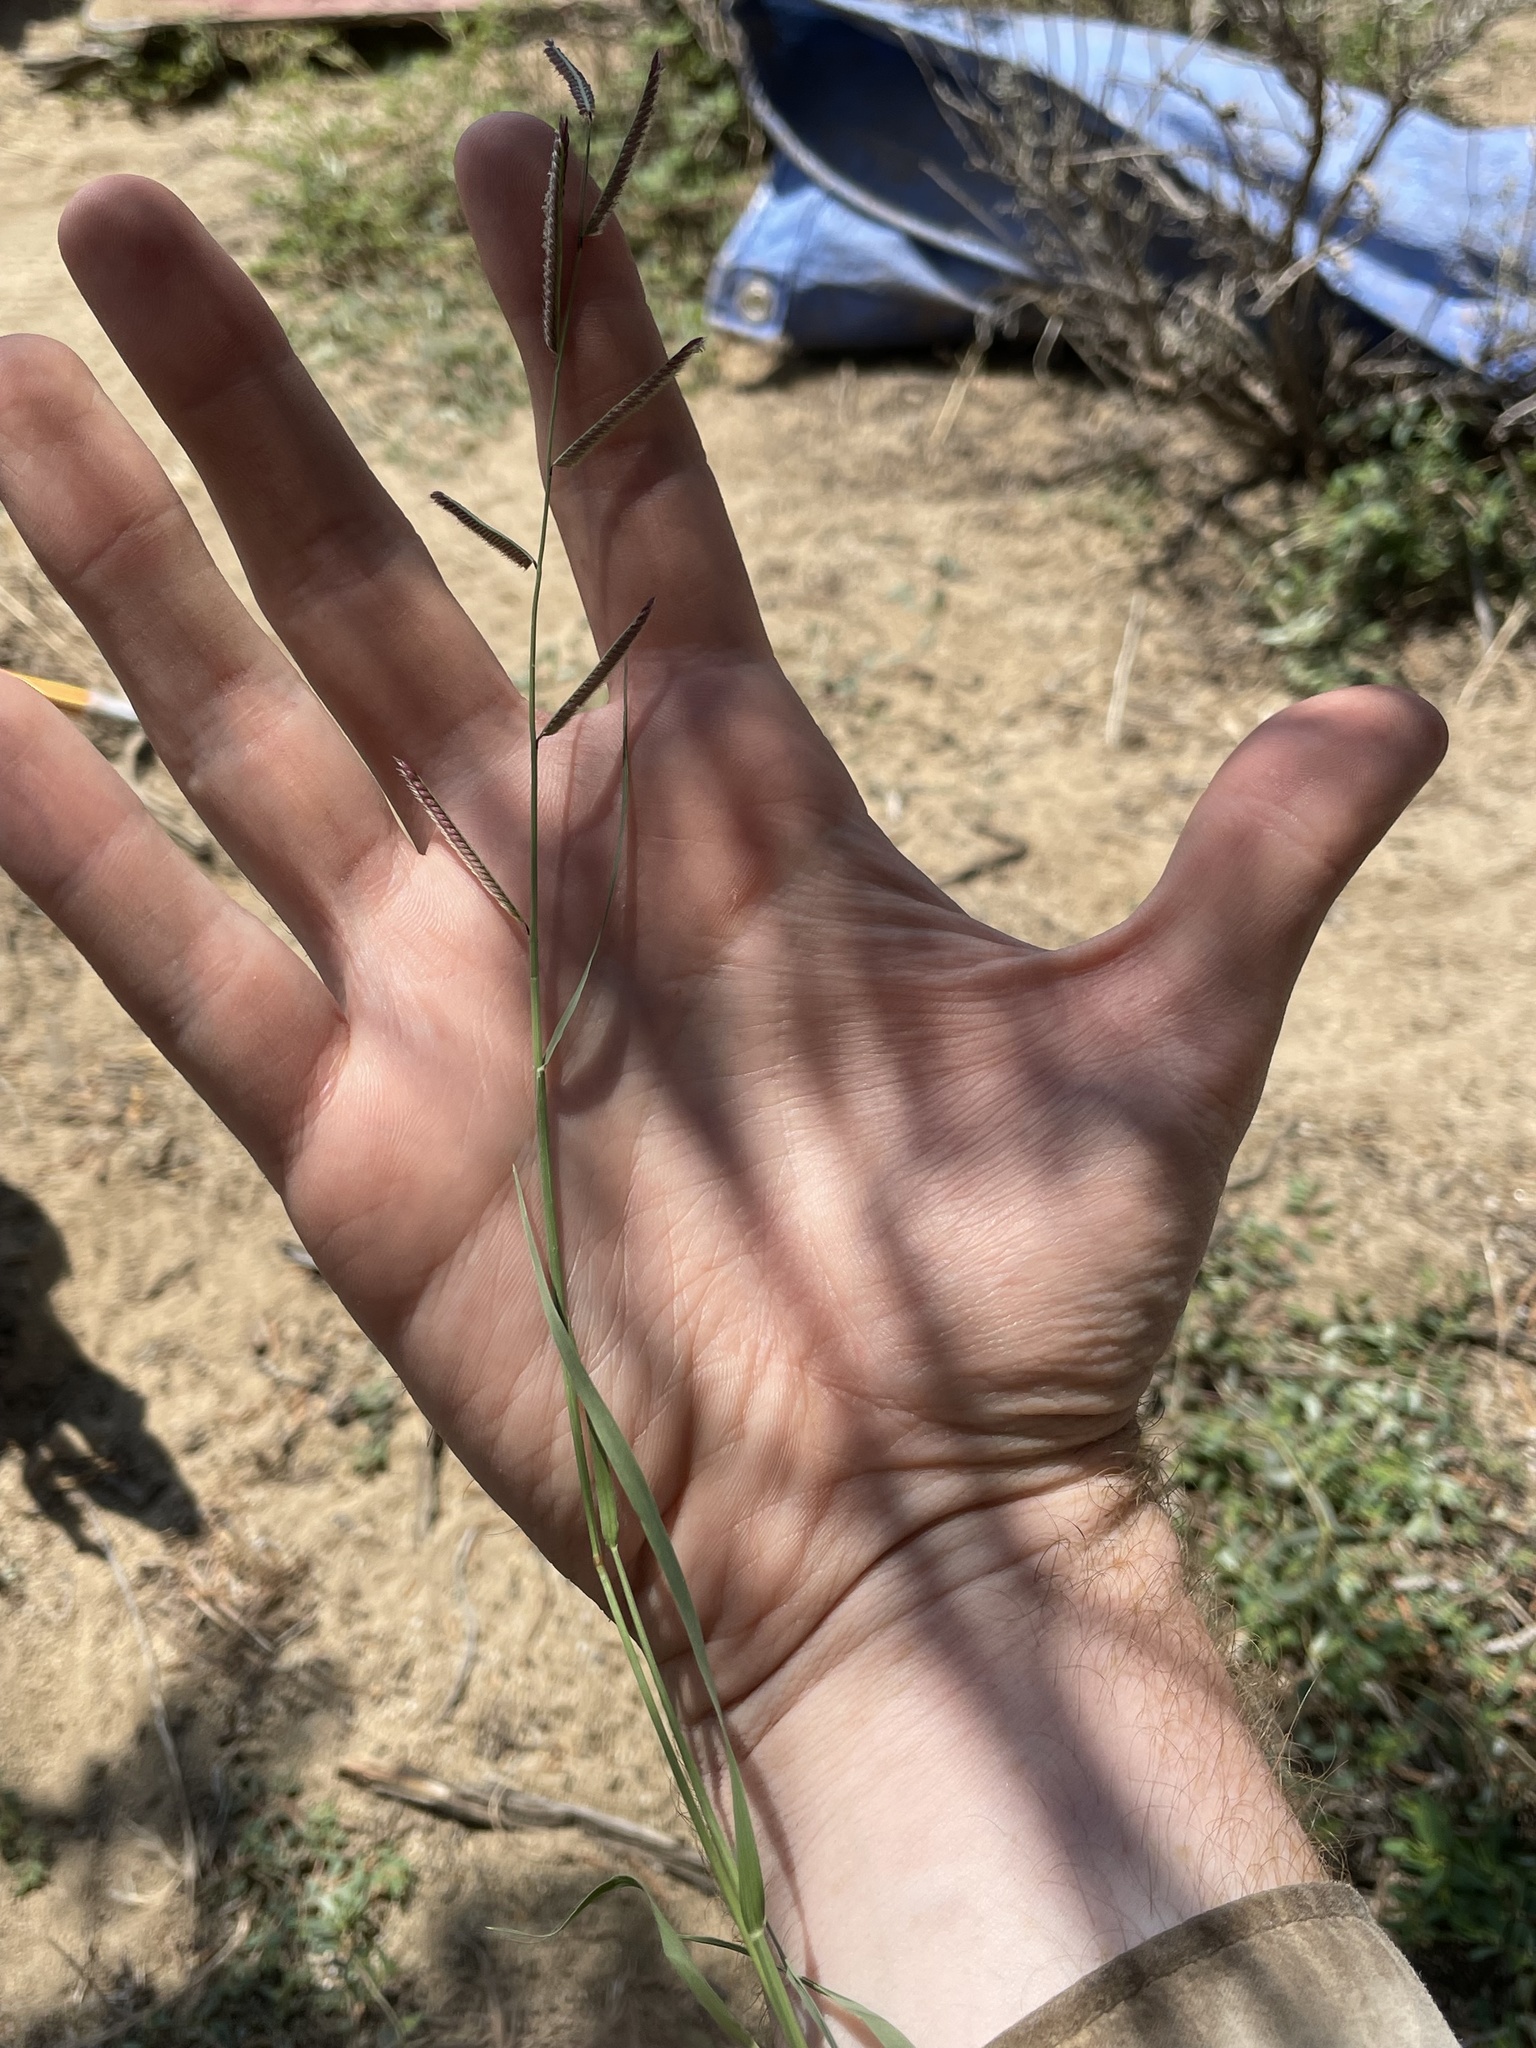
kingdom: Plantae
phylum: Tracheophyta
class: Liliopsida
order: Poales
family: Poaceae
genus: Bouteloua
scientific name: Bouteloua barbata
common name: Six-weeks grama
